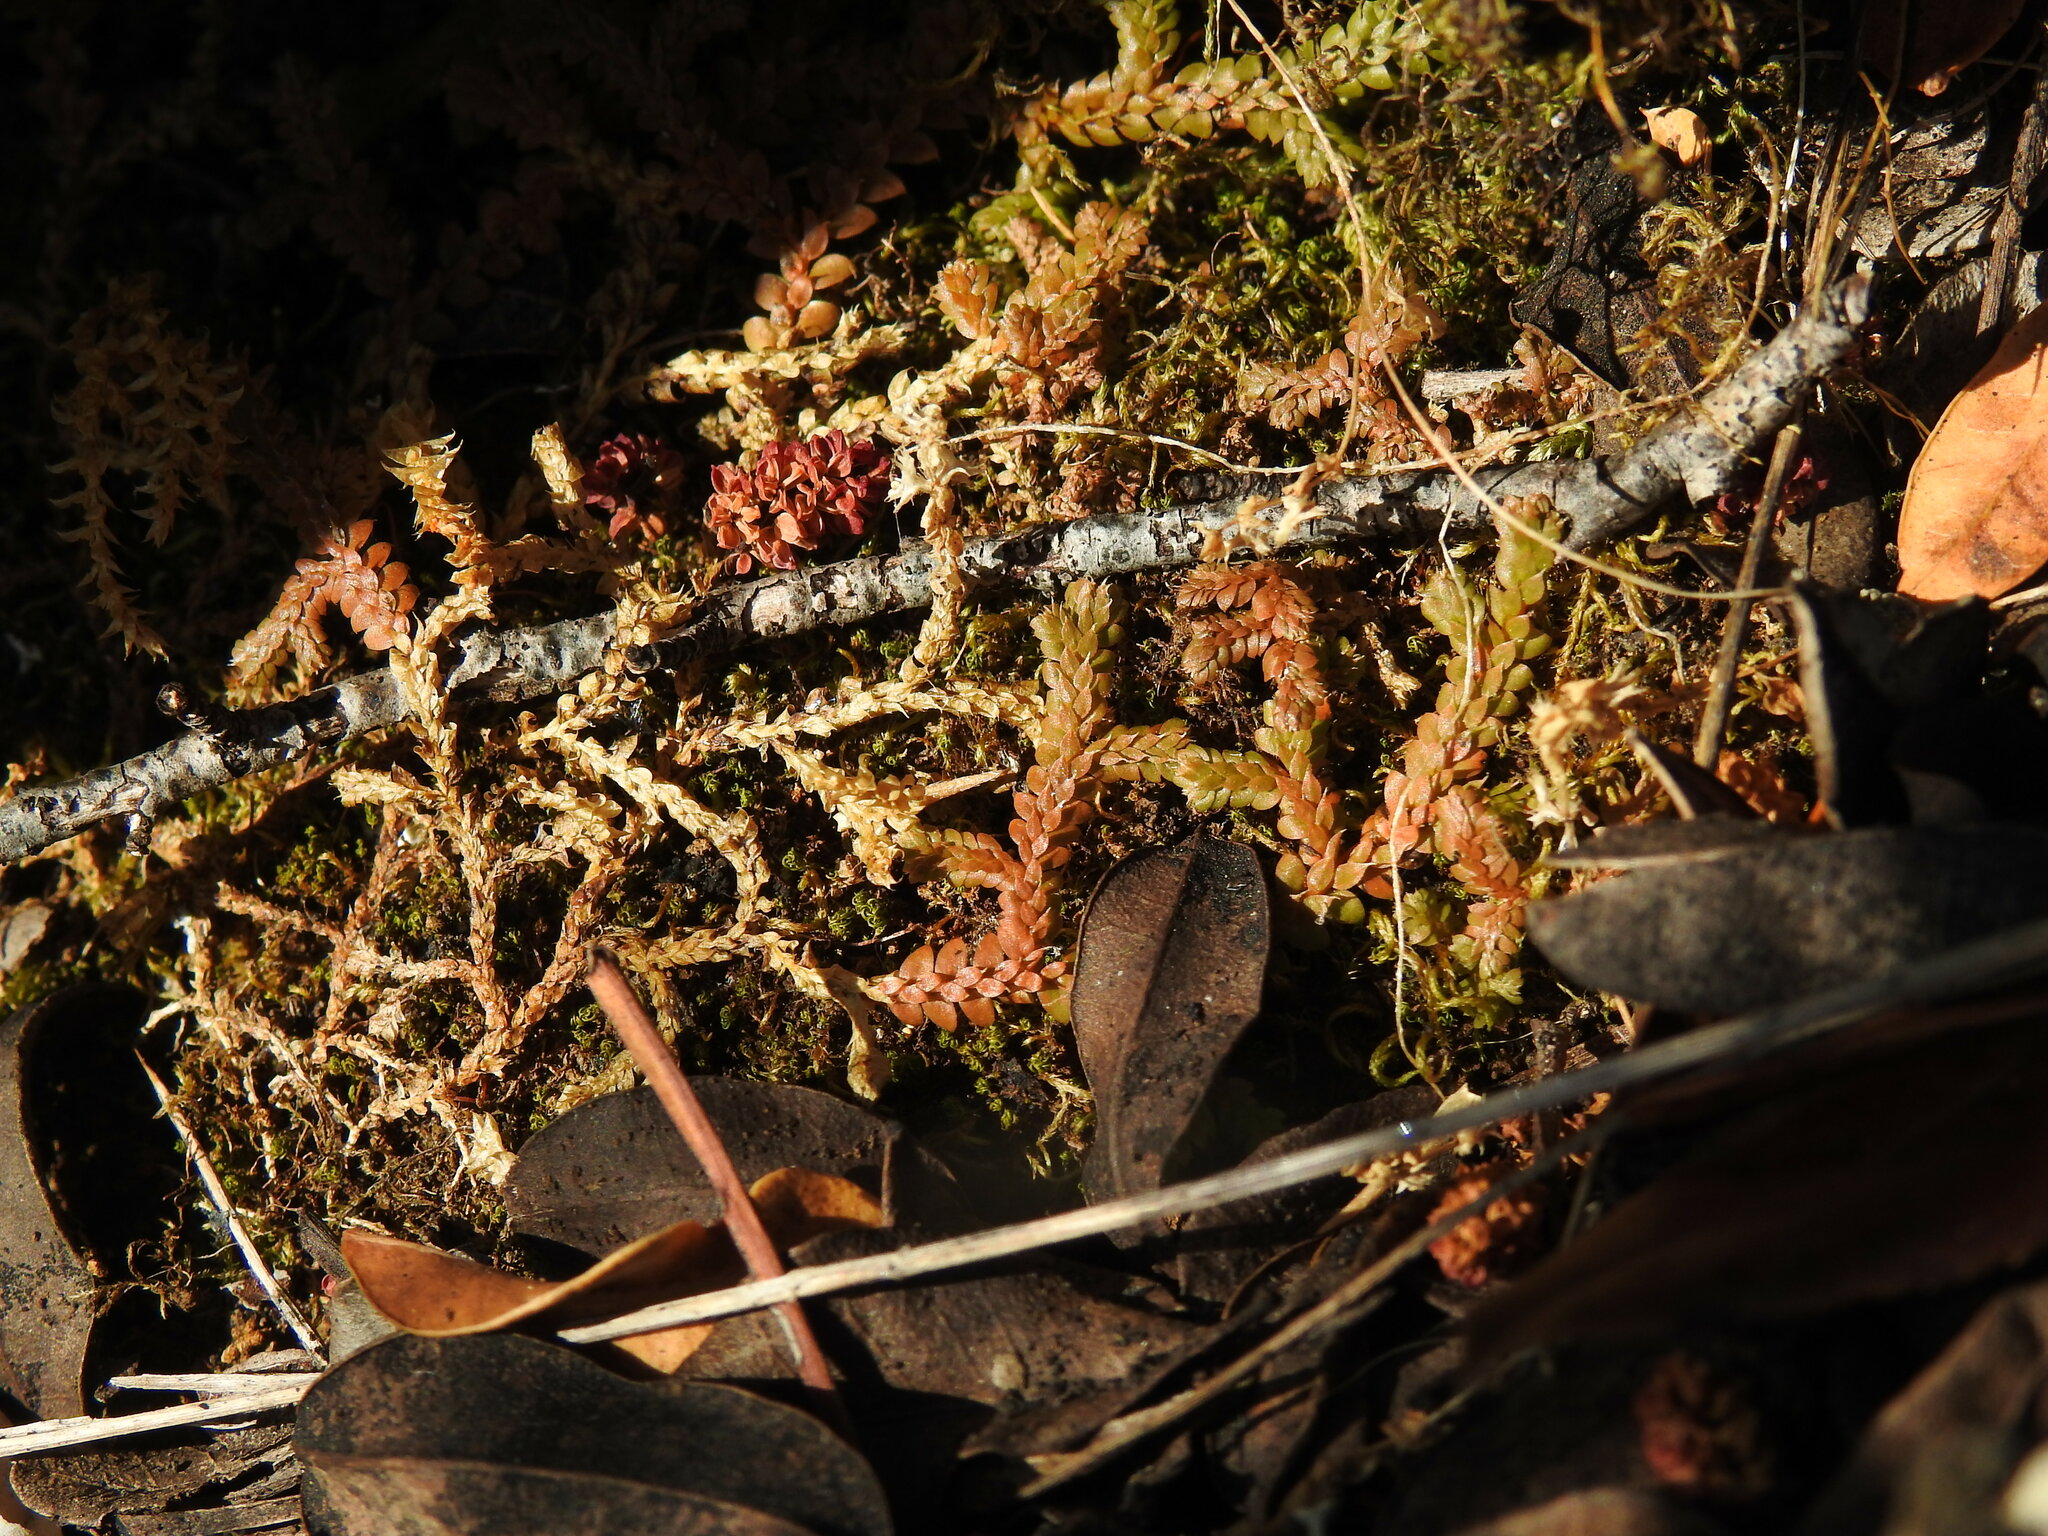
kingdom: Plantae
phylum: Tracheophyta
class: Lycopodiopsida
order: Selaginellales
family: Selaginellaceae
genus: Selaginella
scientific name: Selaginella denticulata
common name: Toothed-leaved clubmoss
